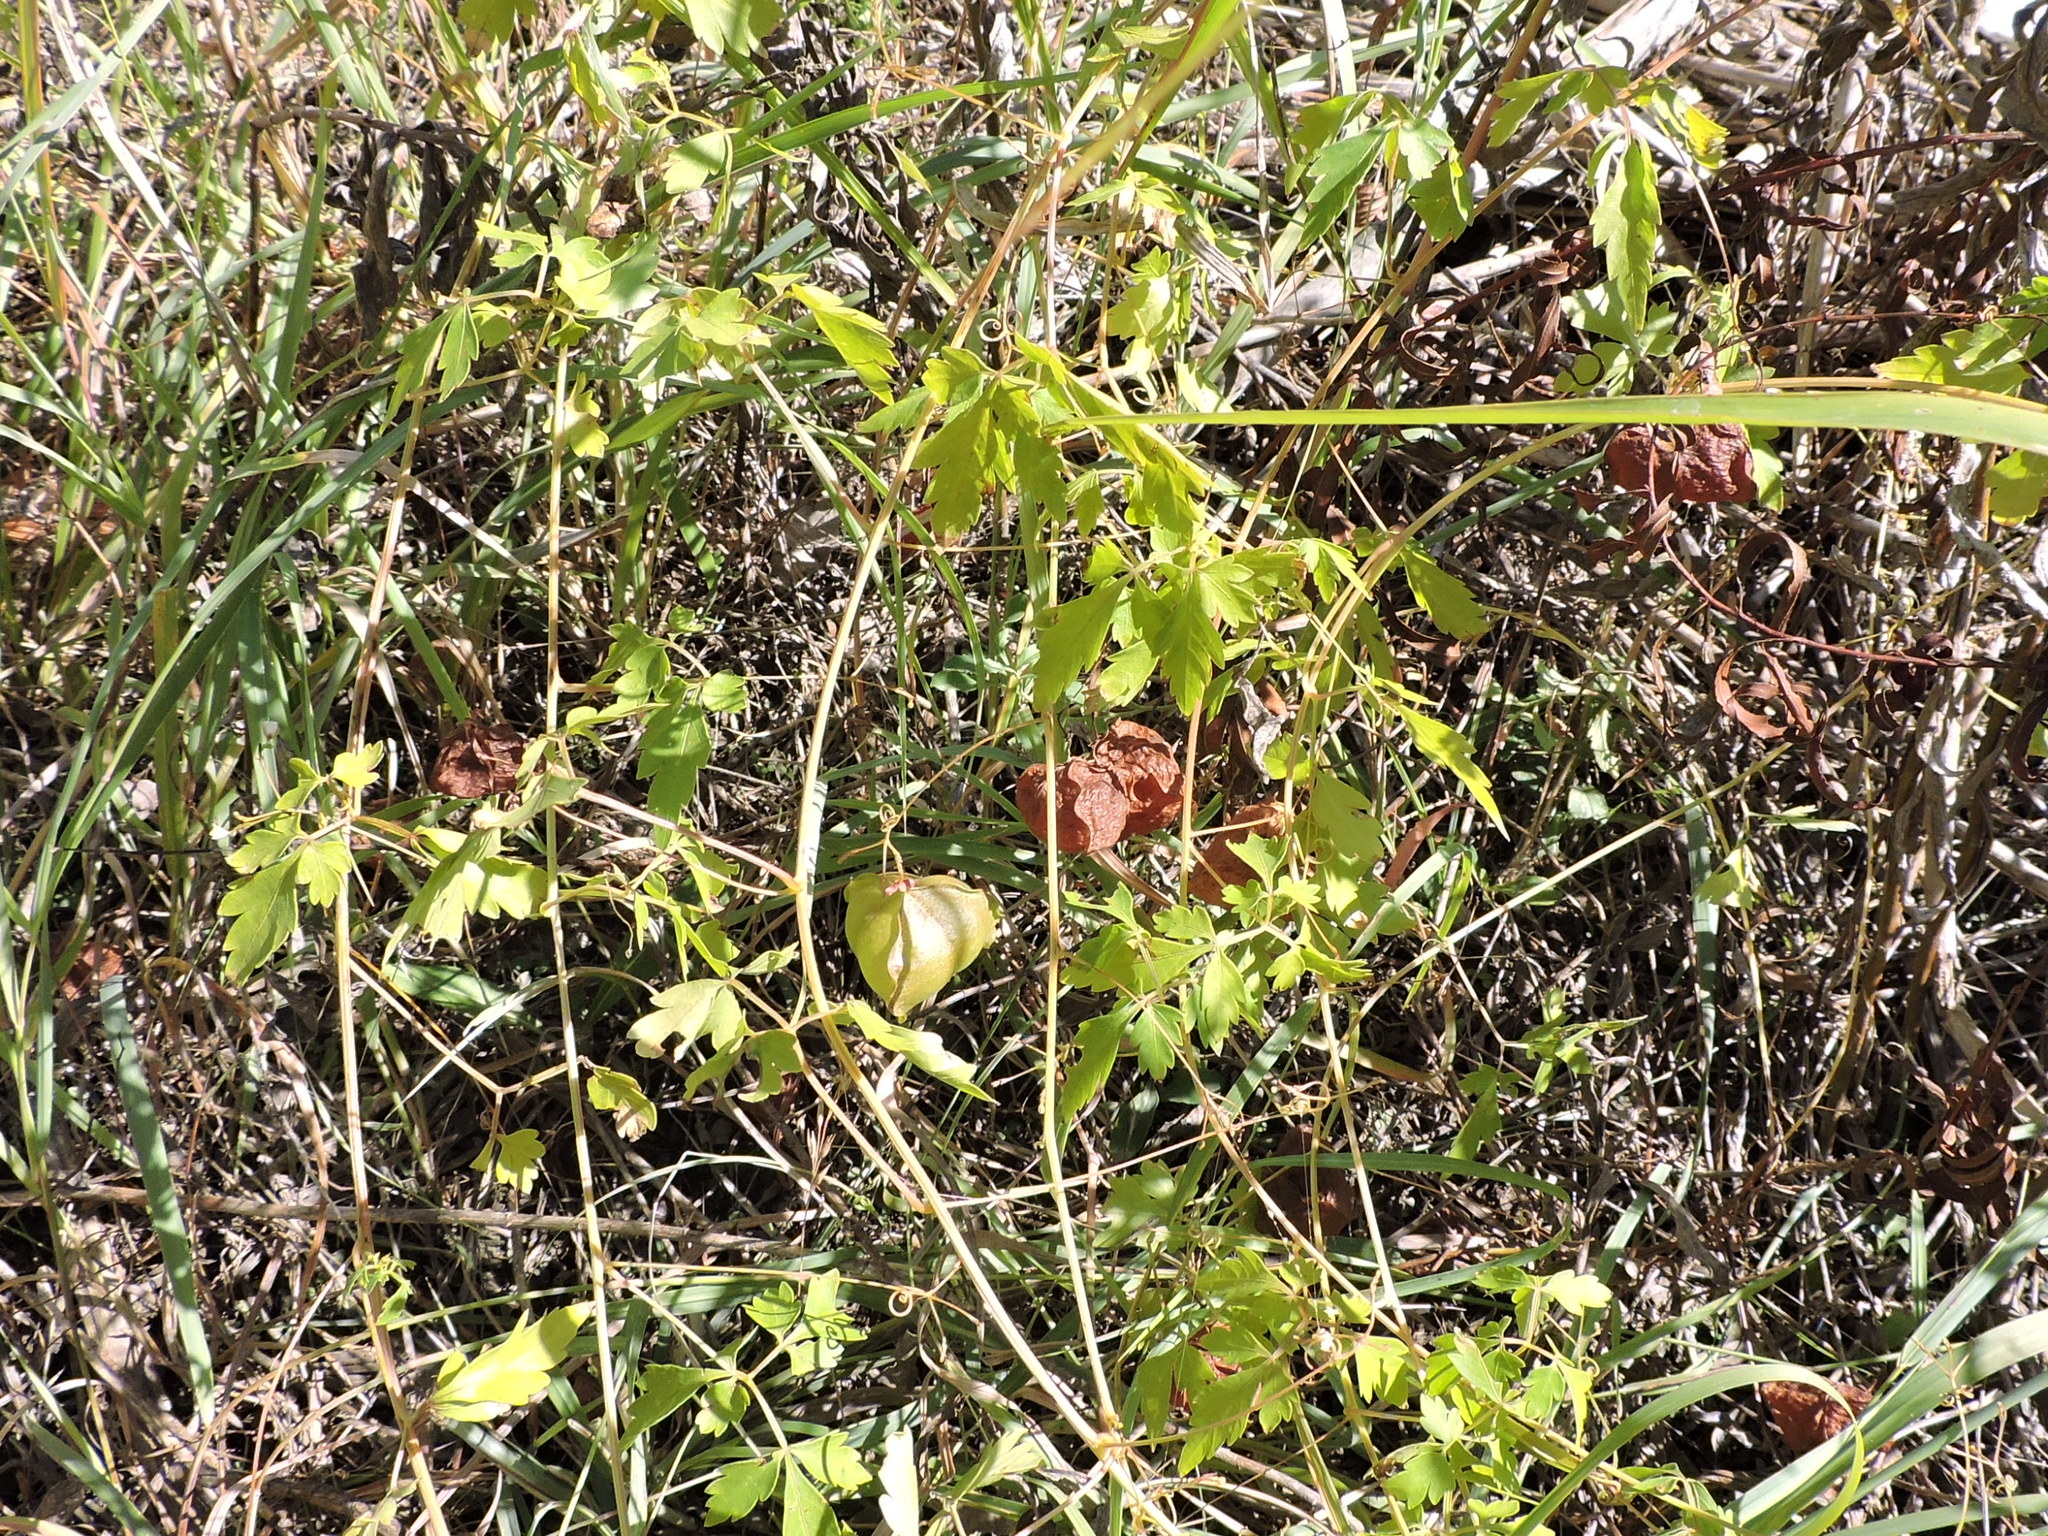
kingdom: Plantae
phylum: Tracheophyta
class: Magnoliopsida
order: Sapindales
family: Sapindaceae
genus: Cardiospermum
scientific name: Cardiospermum halicacabum
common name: Balloon vine
